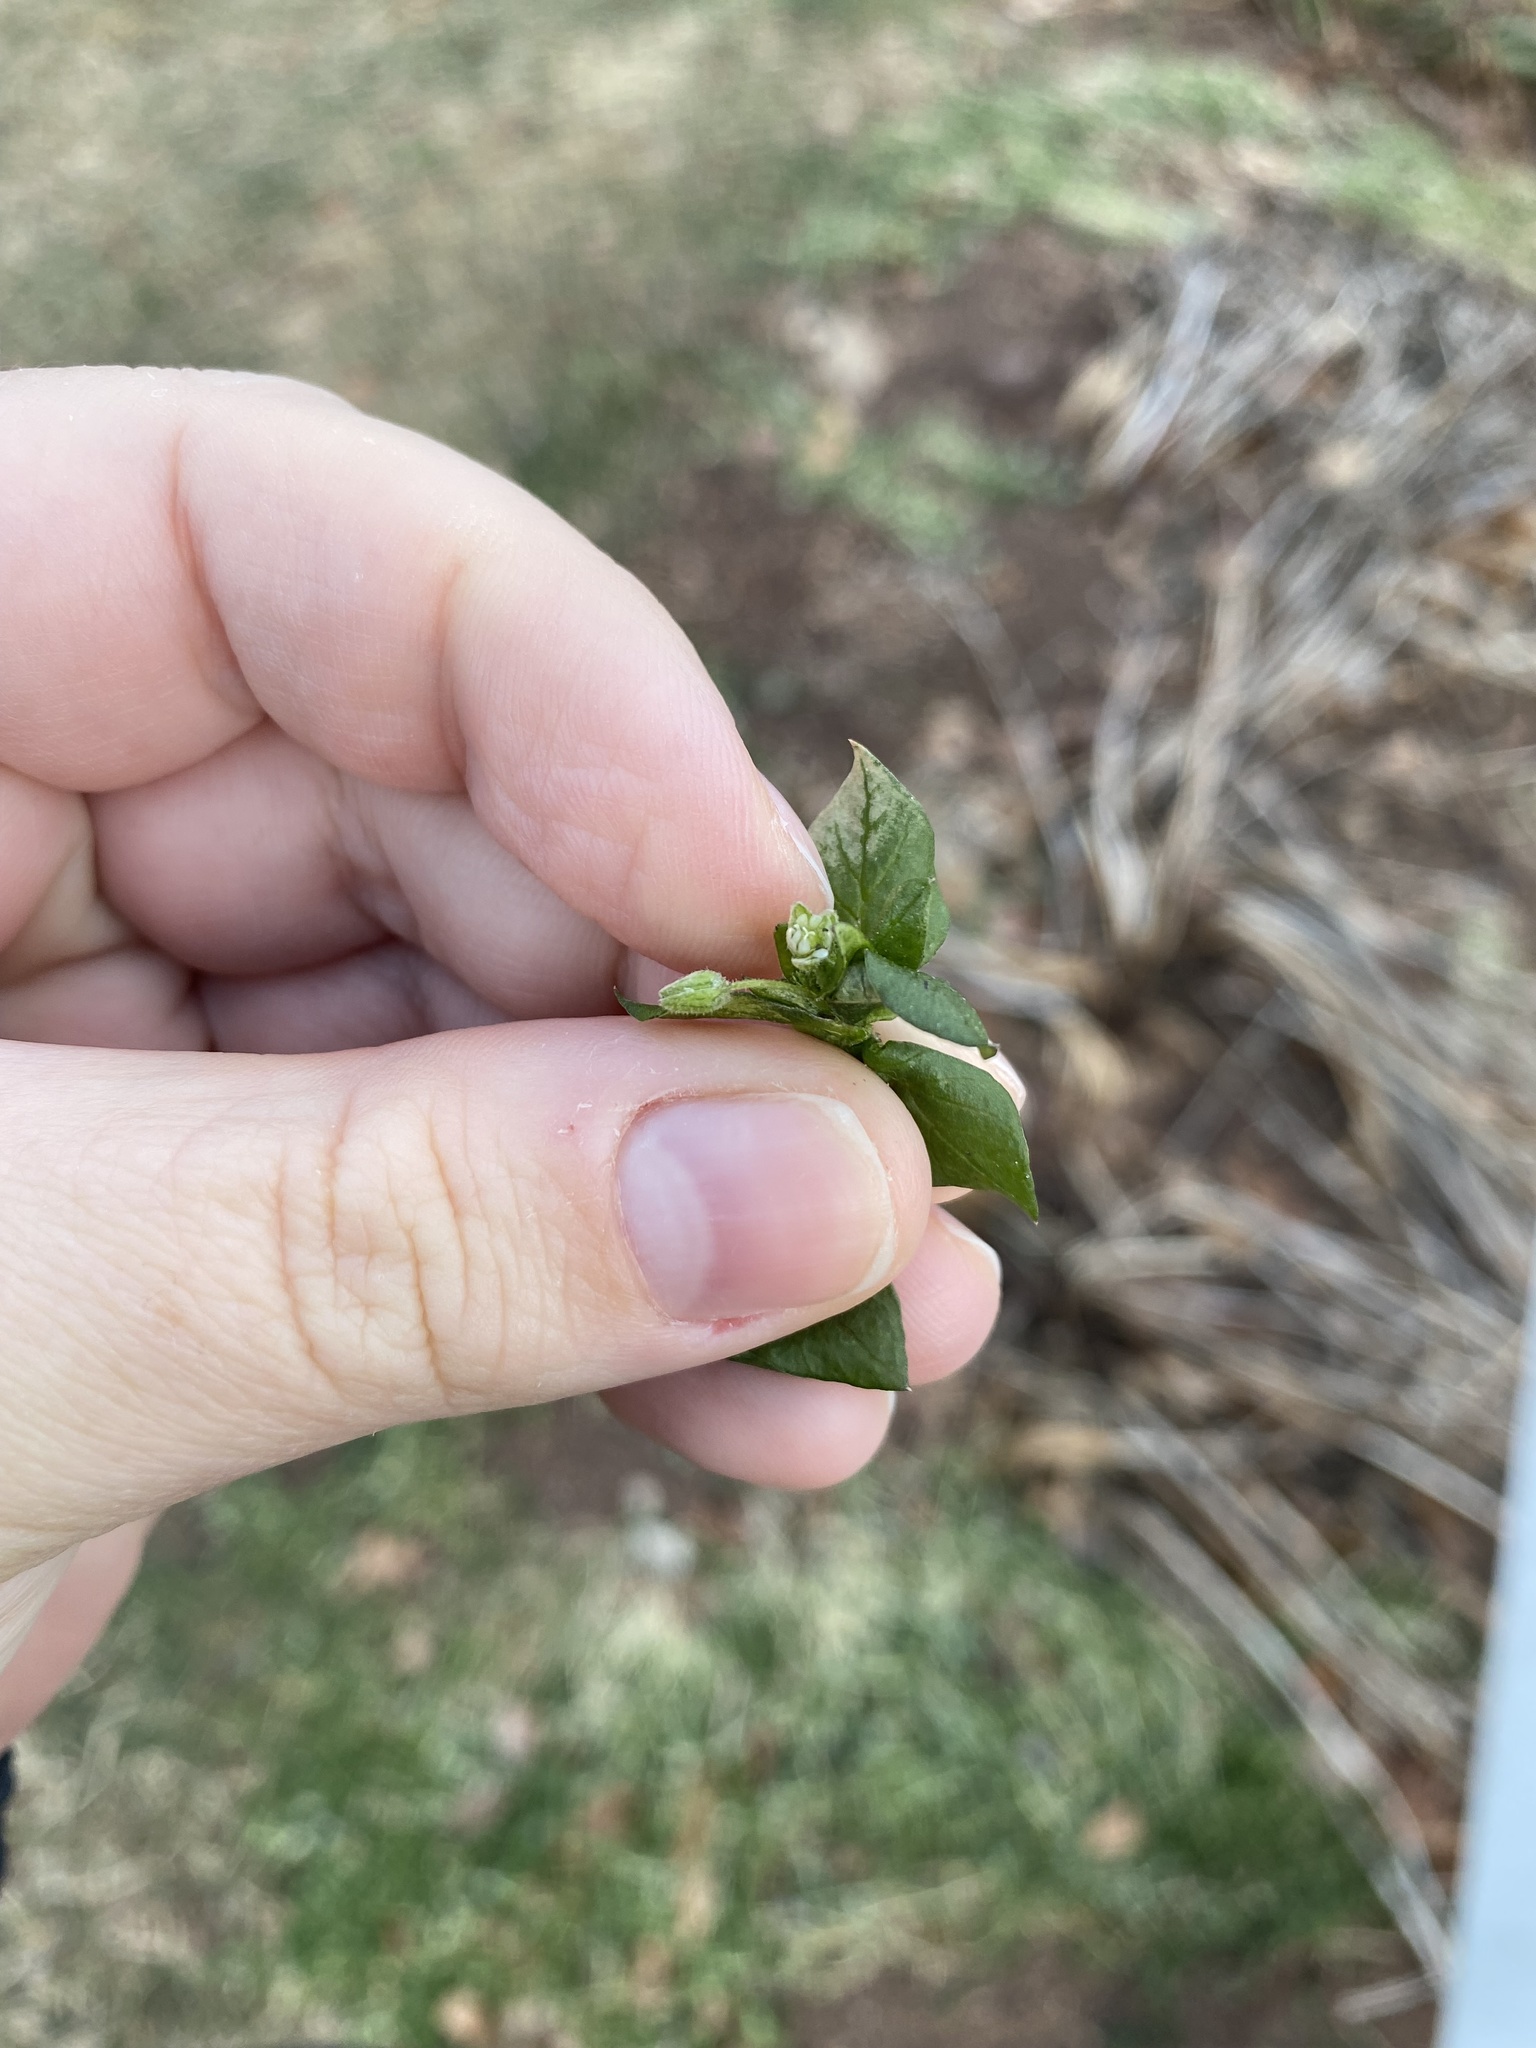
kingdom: Plantae
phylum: Tracheophyta
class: Magnoliopsida
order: Caryophyllales
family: Caryophyllaceae
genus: Stellaria
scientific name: Stellaria media
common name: Common chickweed
